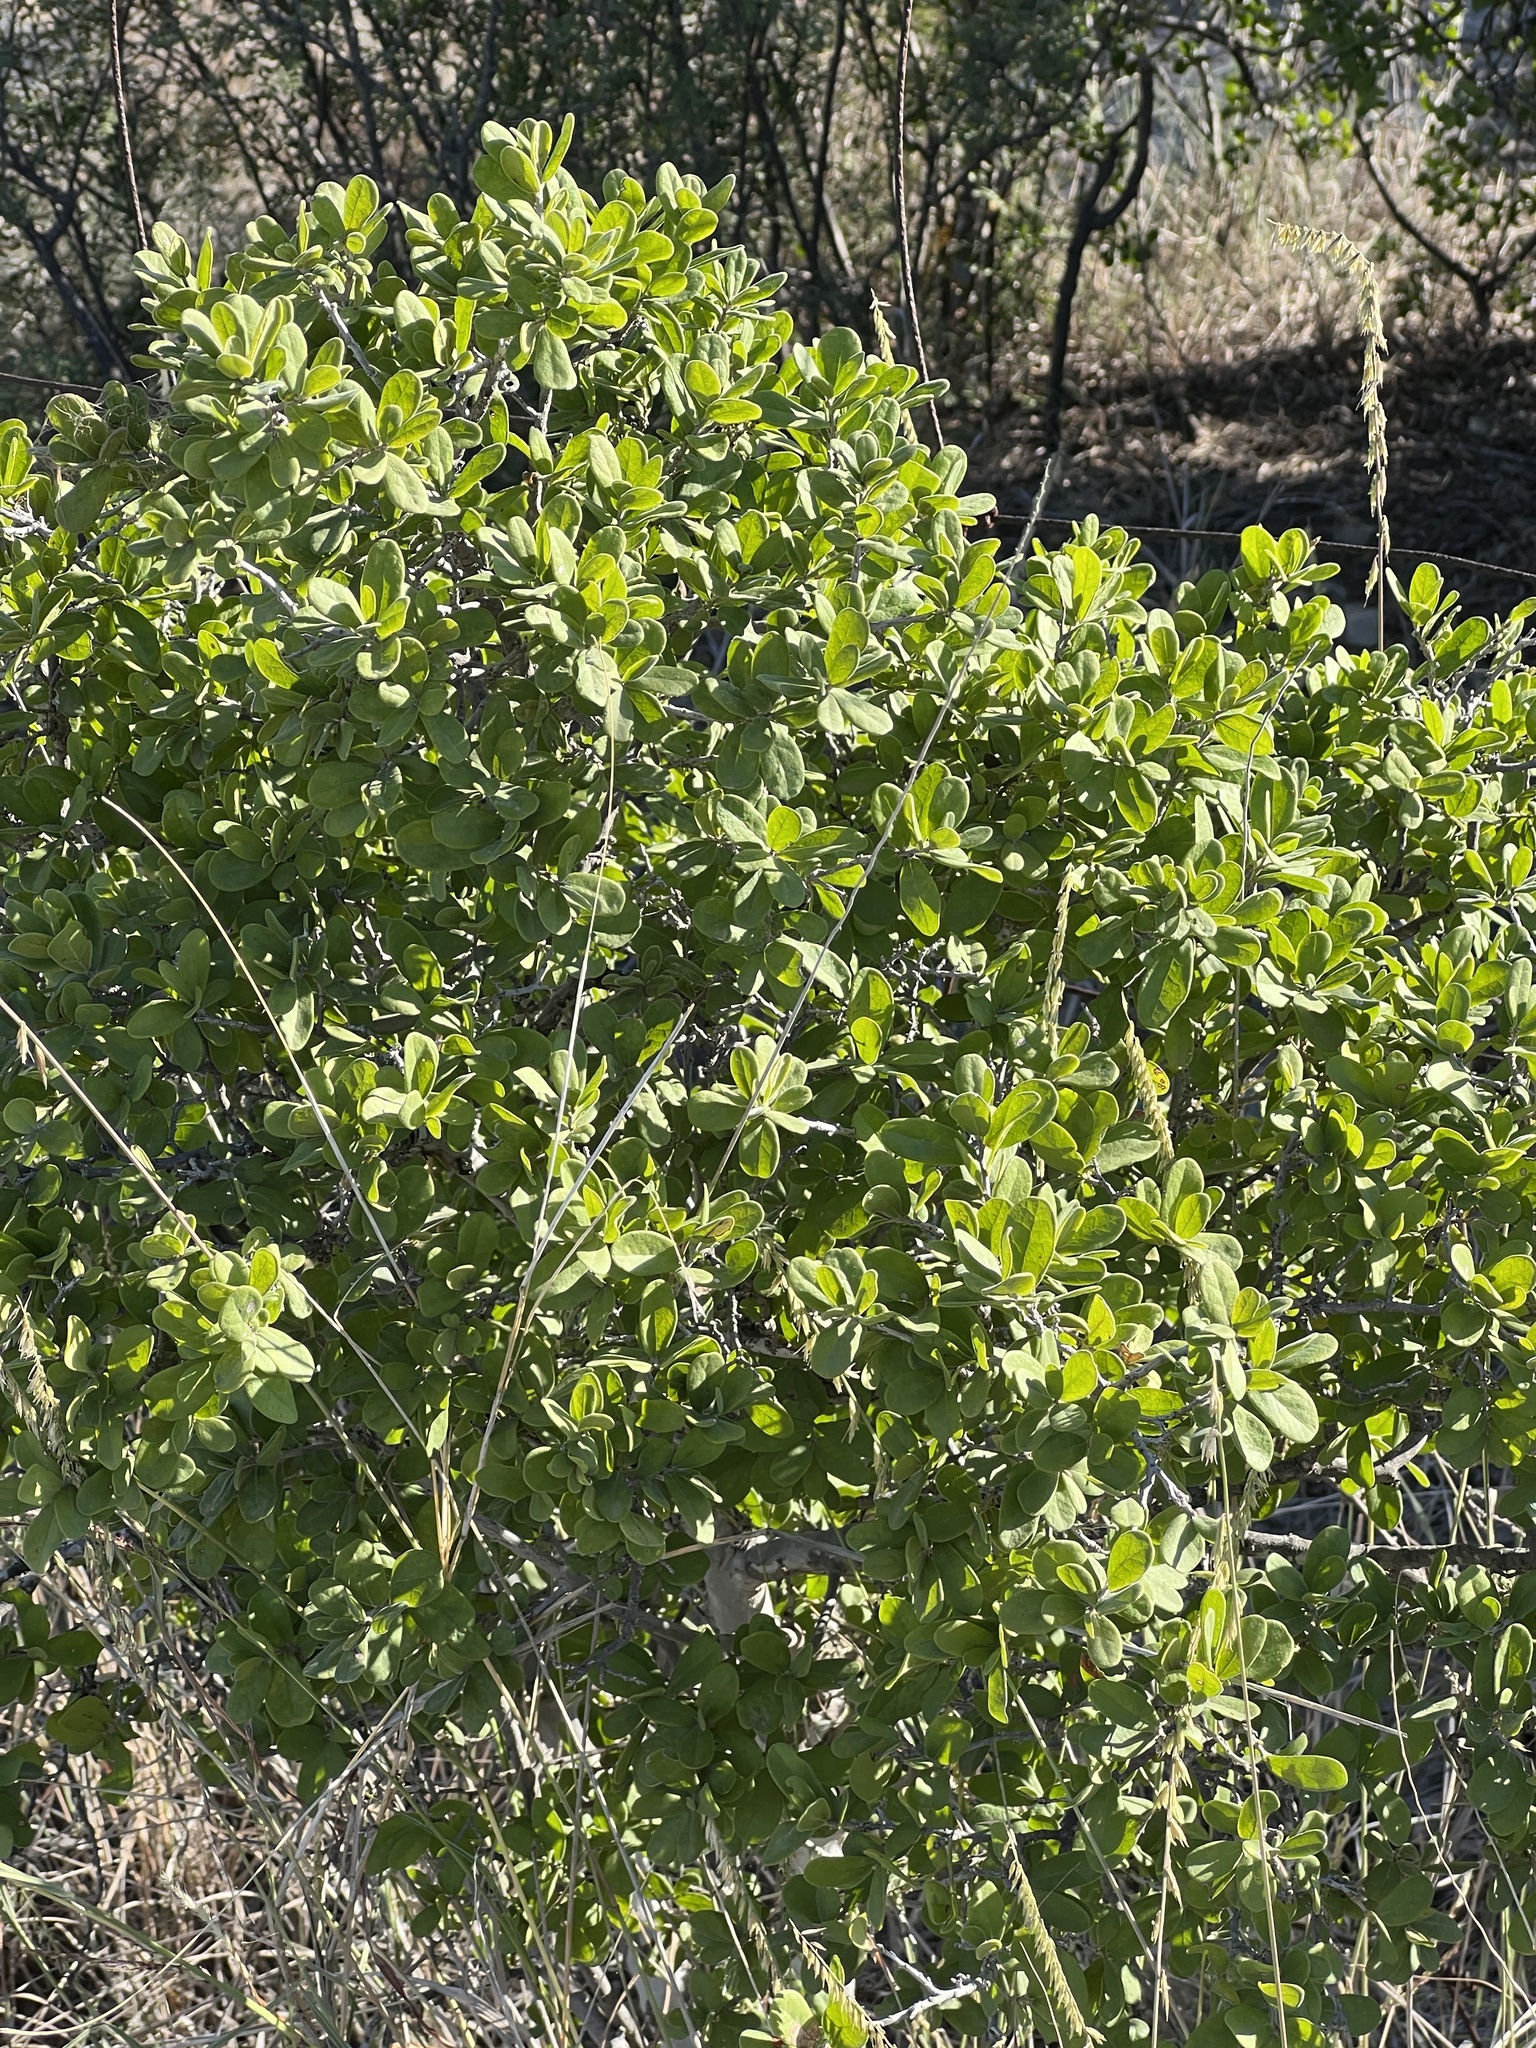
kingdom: Plantae
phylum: Tracheophyta
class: Magnoliopsida
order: Ericales
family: Ebenaceae
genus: Diospyros
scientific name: Diospyros texana
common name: Texas persimmon
